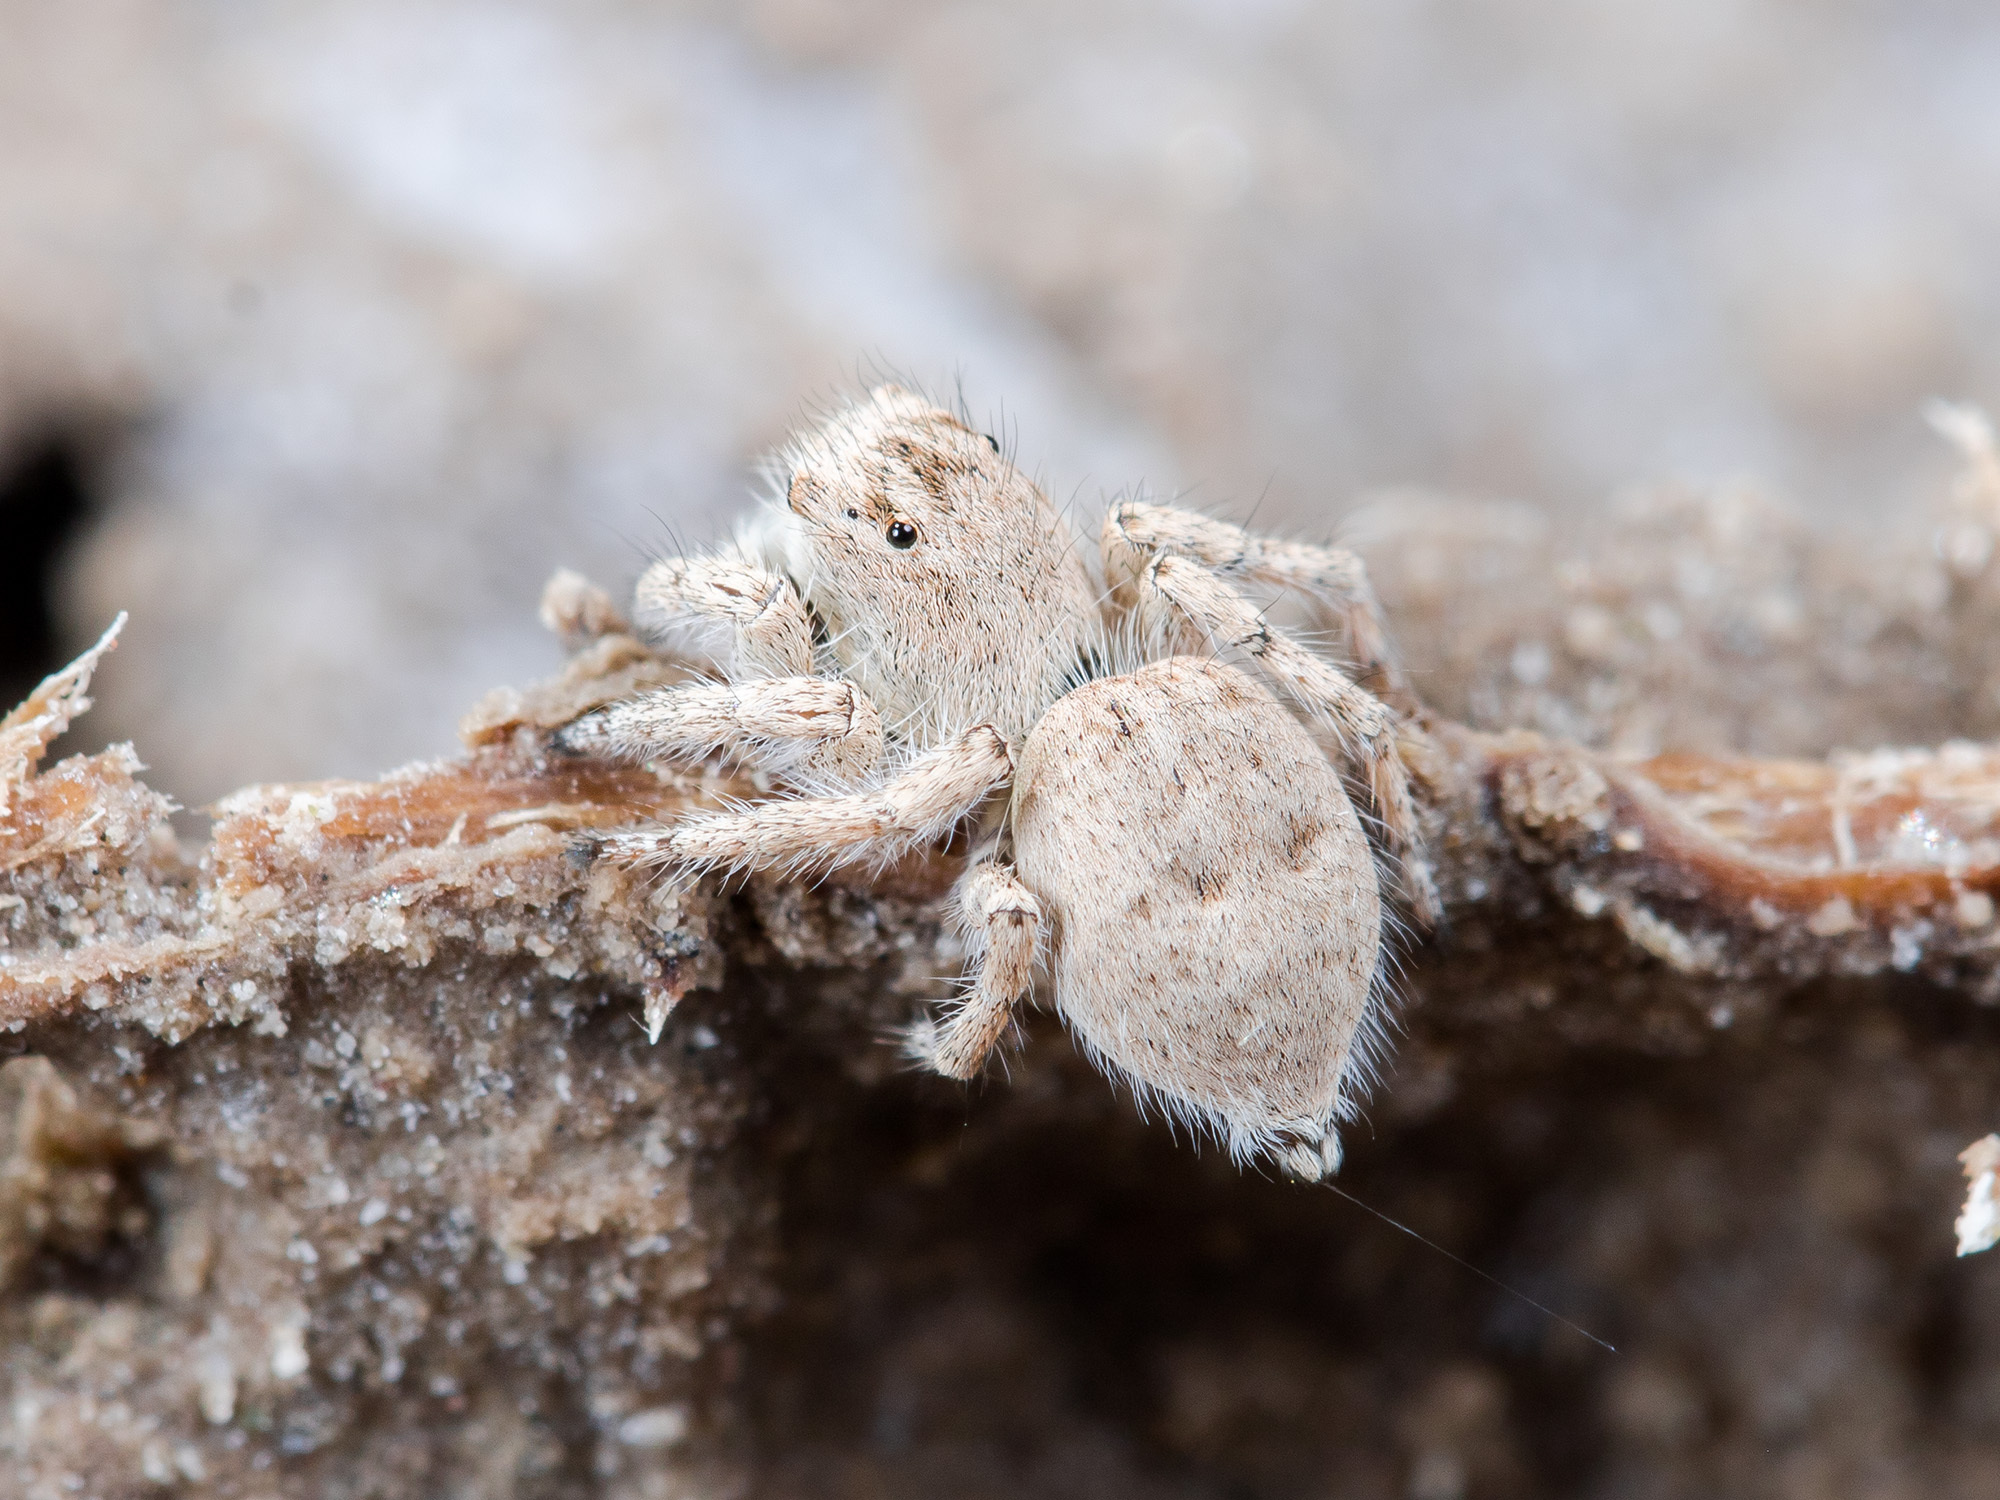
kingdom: Animalia
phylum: Arthropoda
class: Arachnida
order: Araneae
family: Salticidae
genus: Aelurillus
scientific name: Aelurillus concolor
